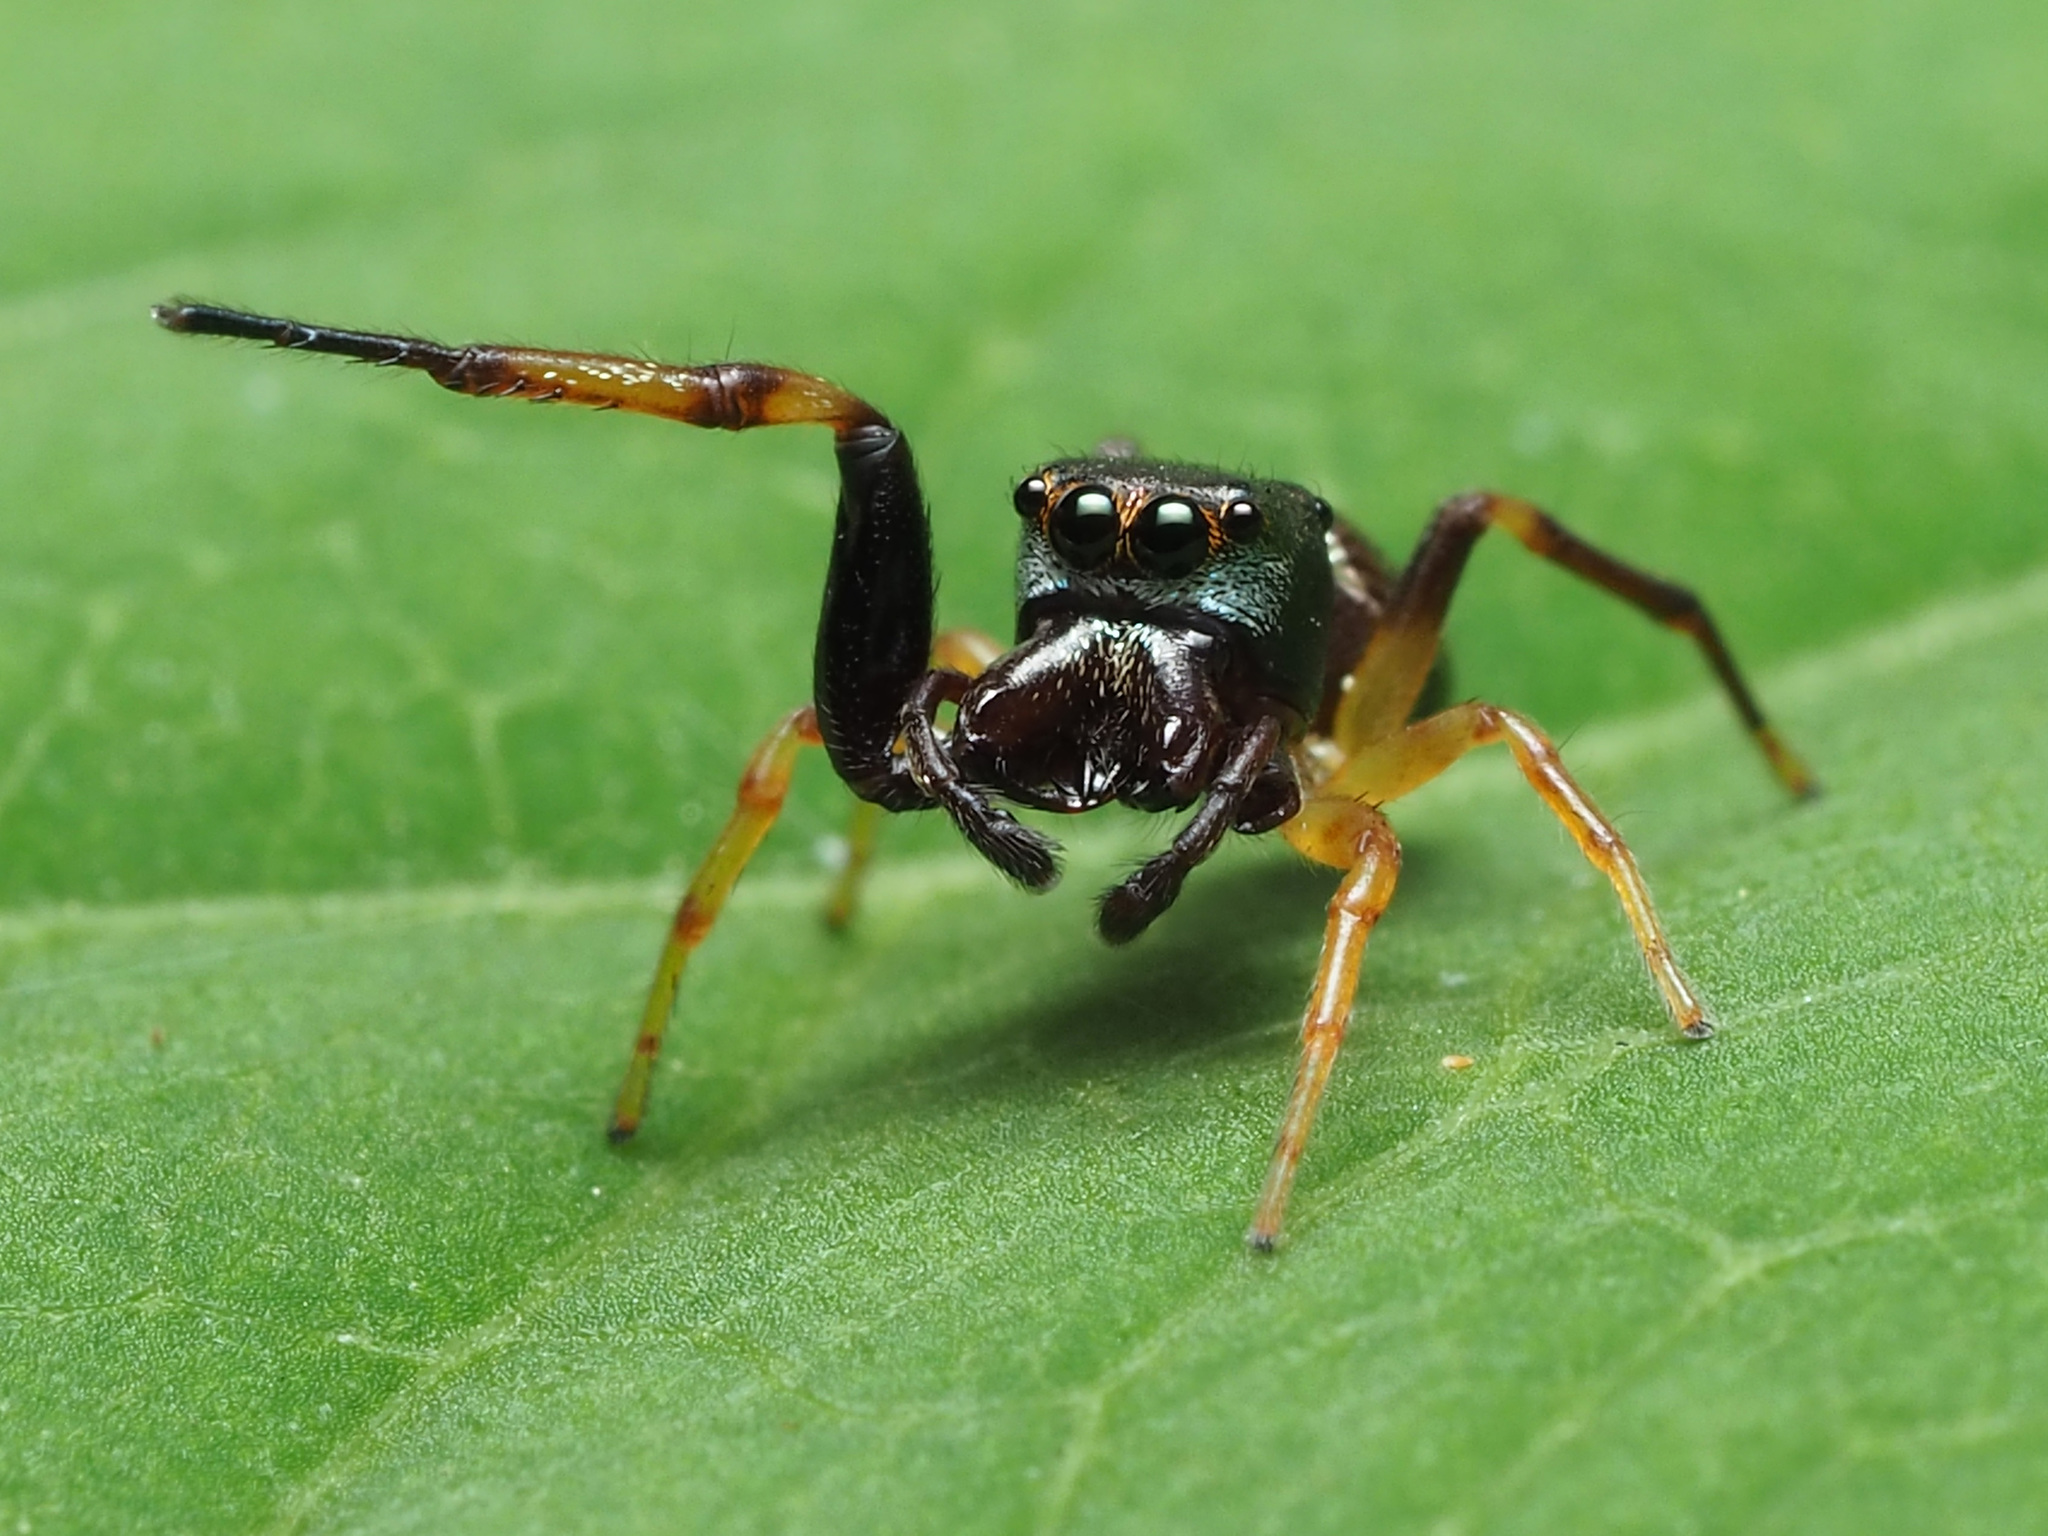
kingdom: Animalia
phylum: Arthropoda
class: Arachnida
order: Araneae
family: Salticidae
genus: Zygoballus
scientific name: Zygoballus rufipes
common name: Jumping spiders
